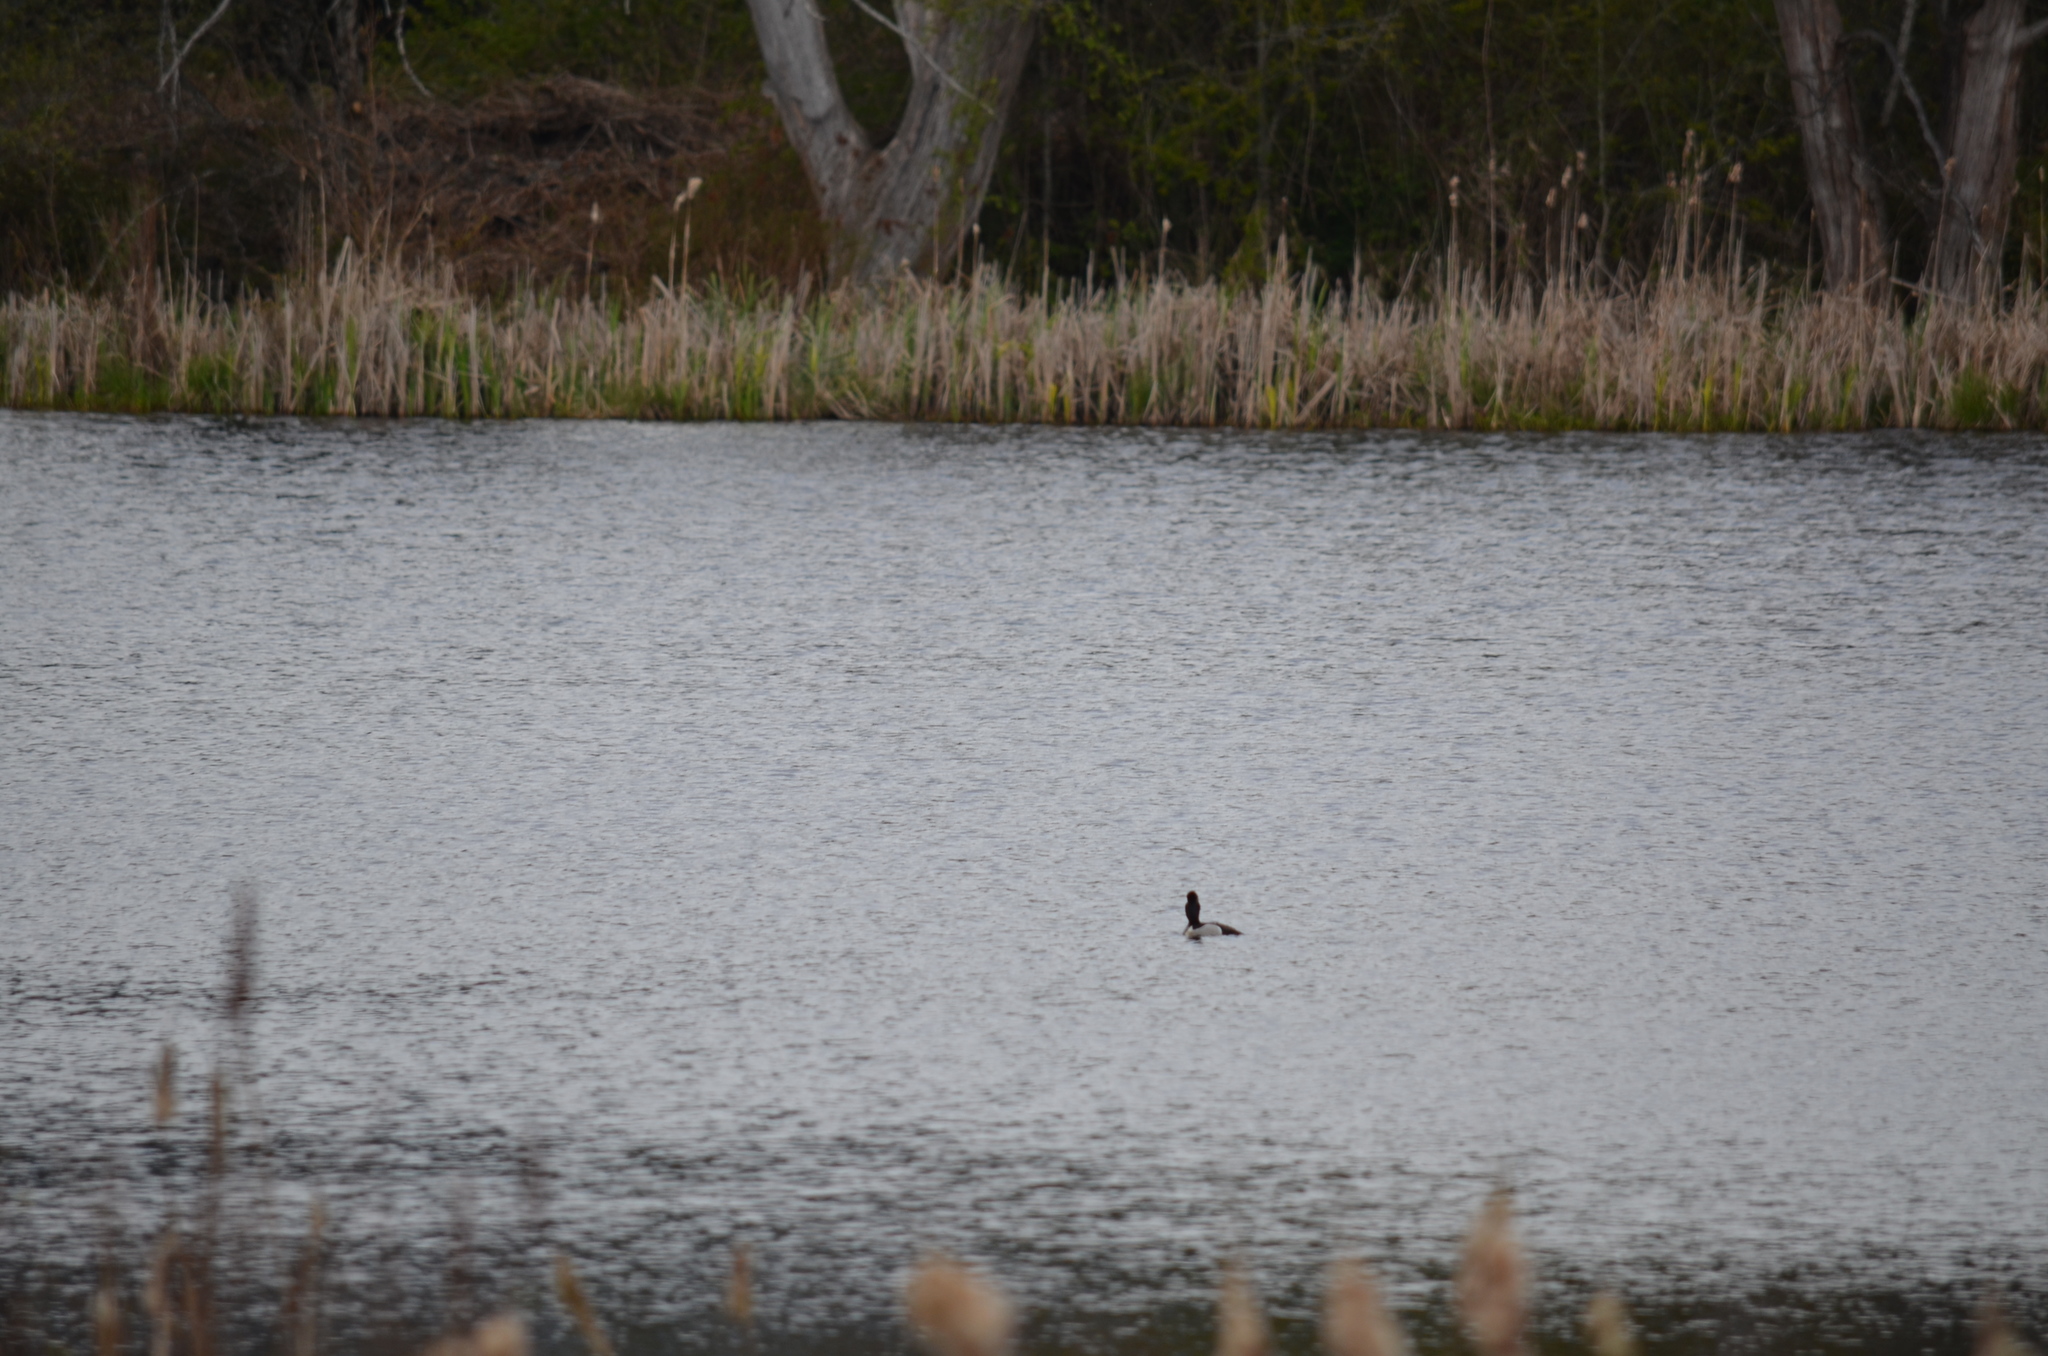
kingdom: Animalia
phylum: Chordata
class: Aves
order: Anseriformes
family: Anatidae
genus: Aythya
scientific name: Aythya collaris
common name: Ring-necked duck
